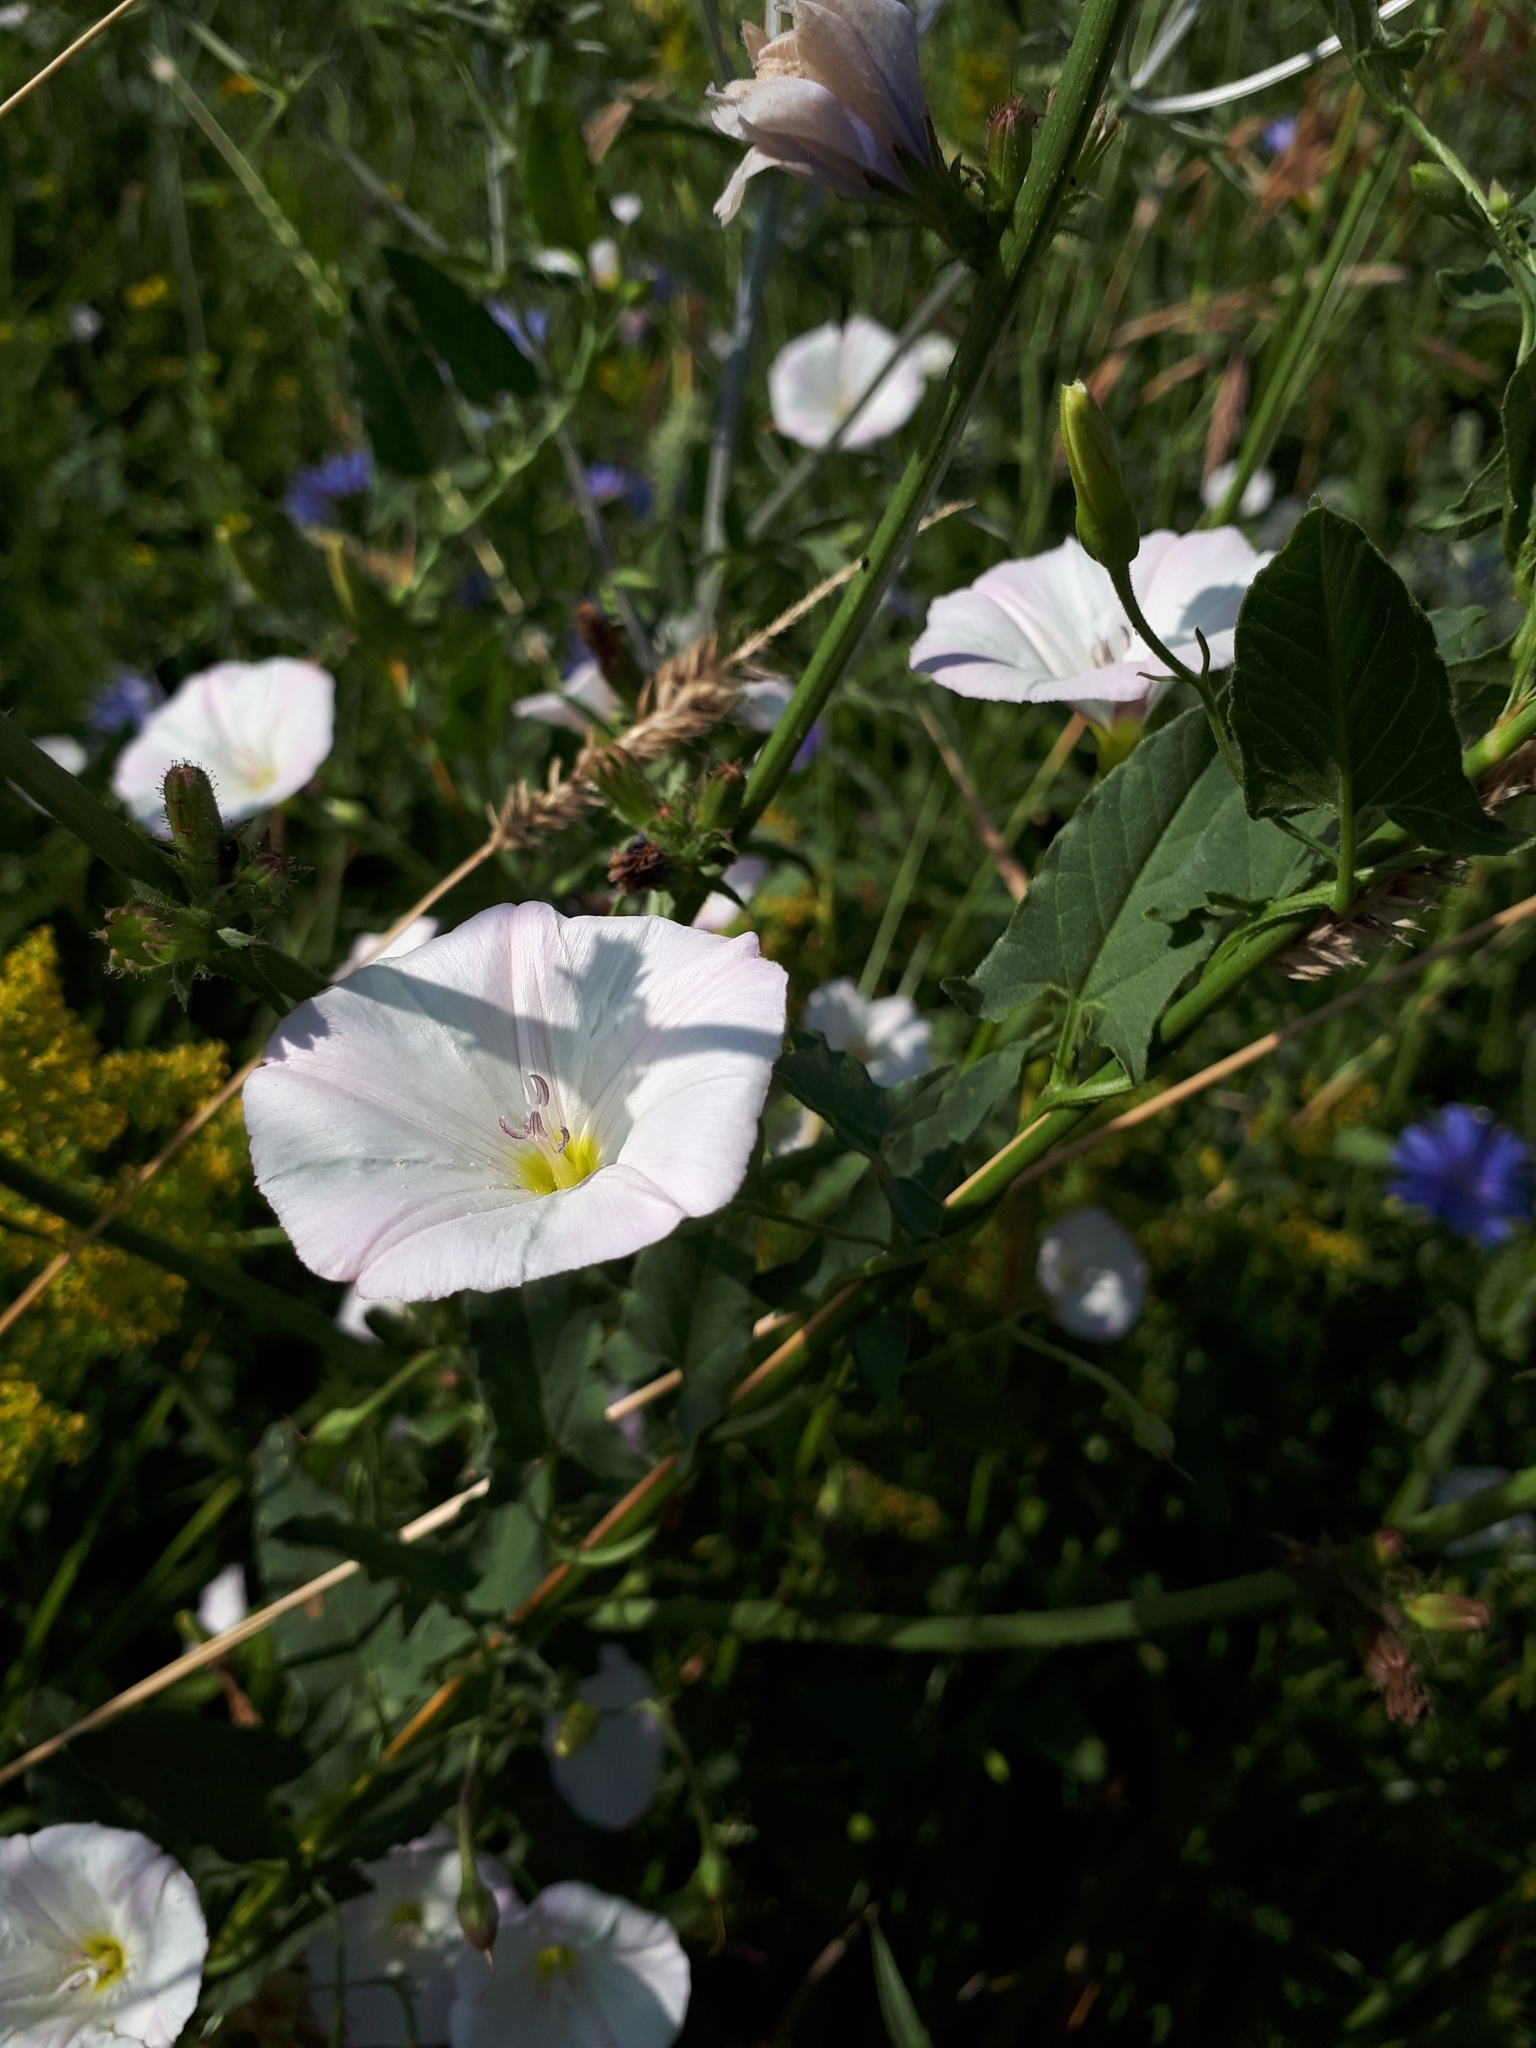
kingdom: Plantae
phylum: Tracheophyta
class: Magnoliopsida
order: Solanales
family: Convolvulaceae
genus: Convolvulus
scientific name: Convolvulus arvensis
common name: Field bindweed
